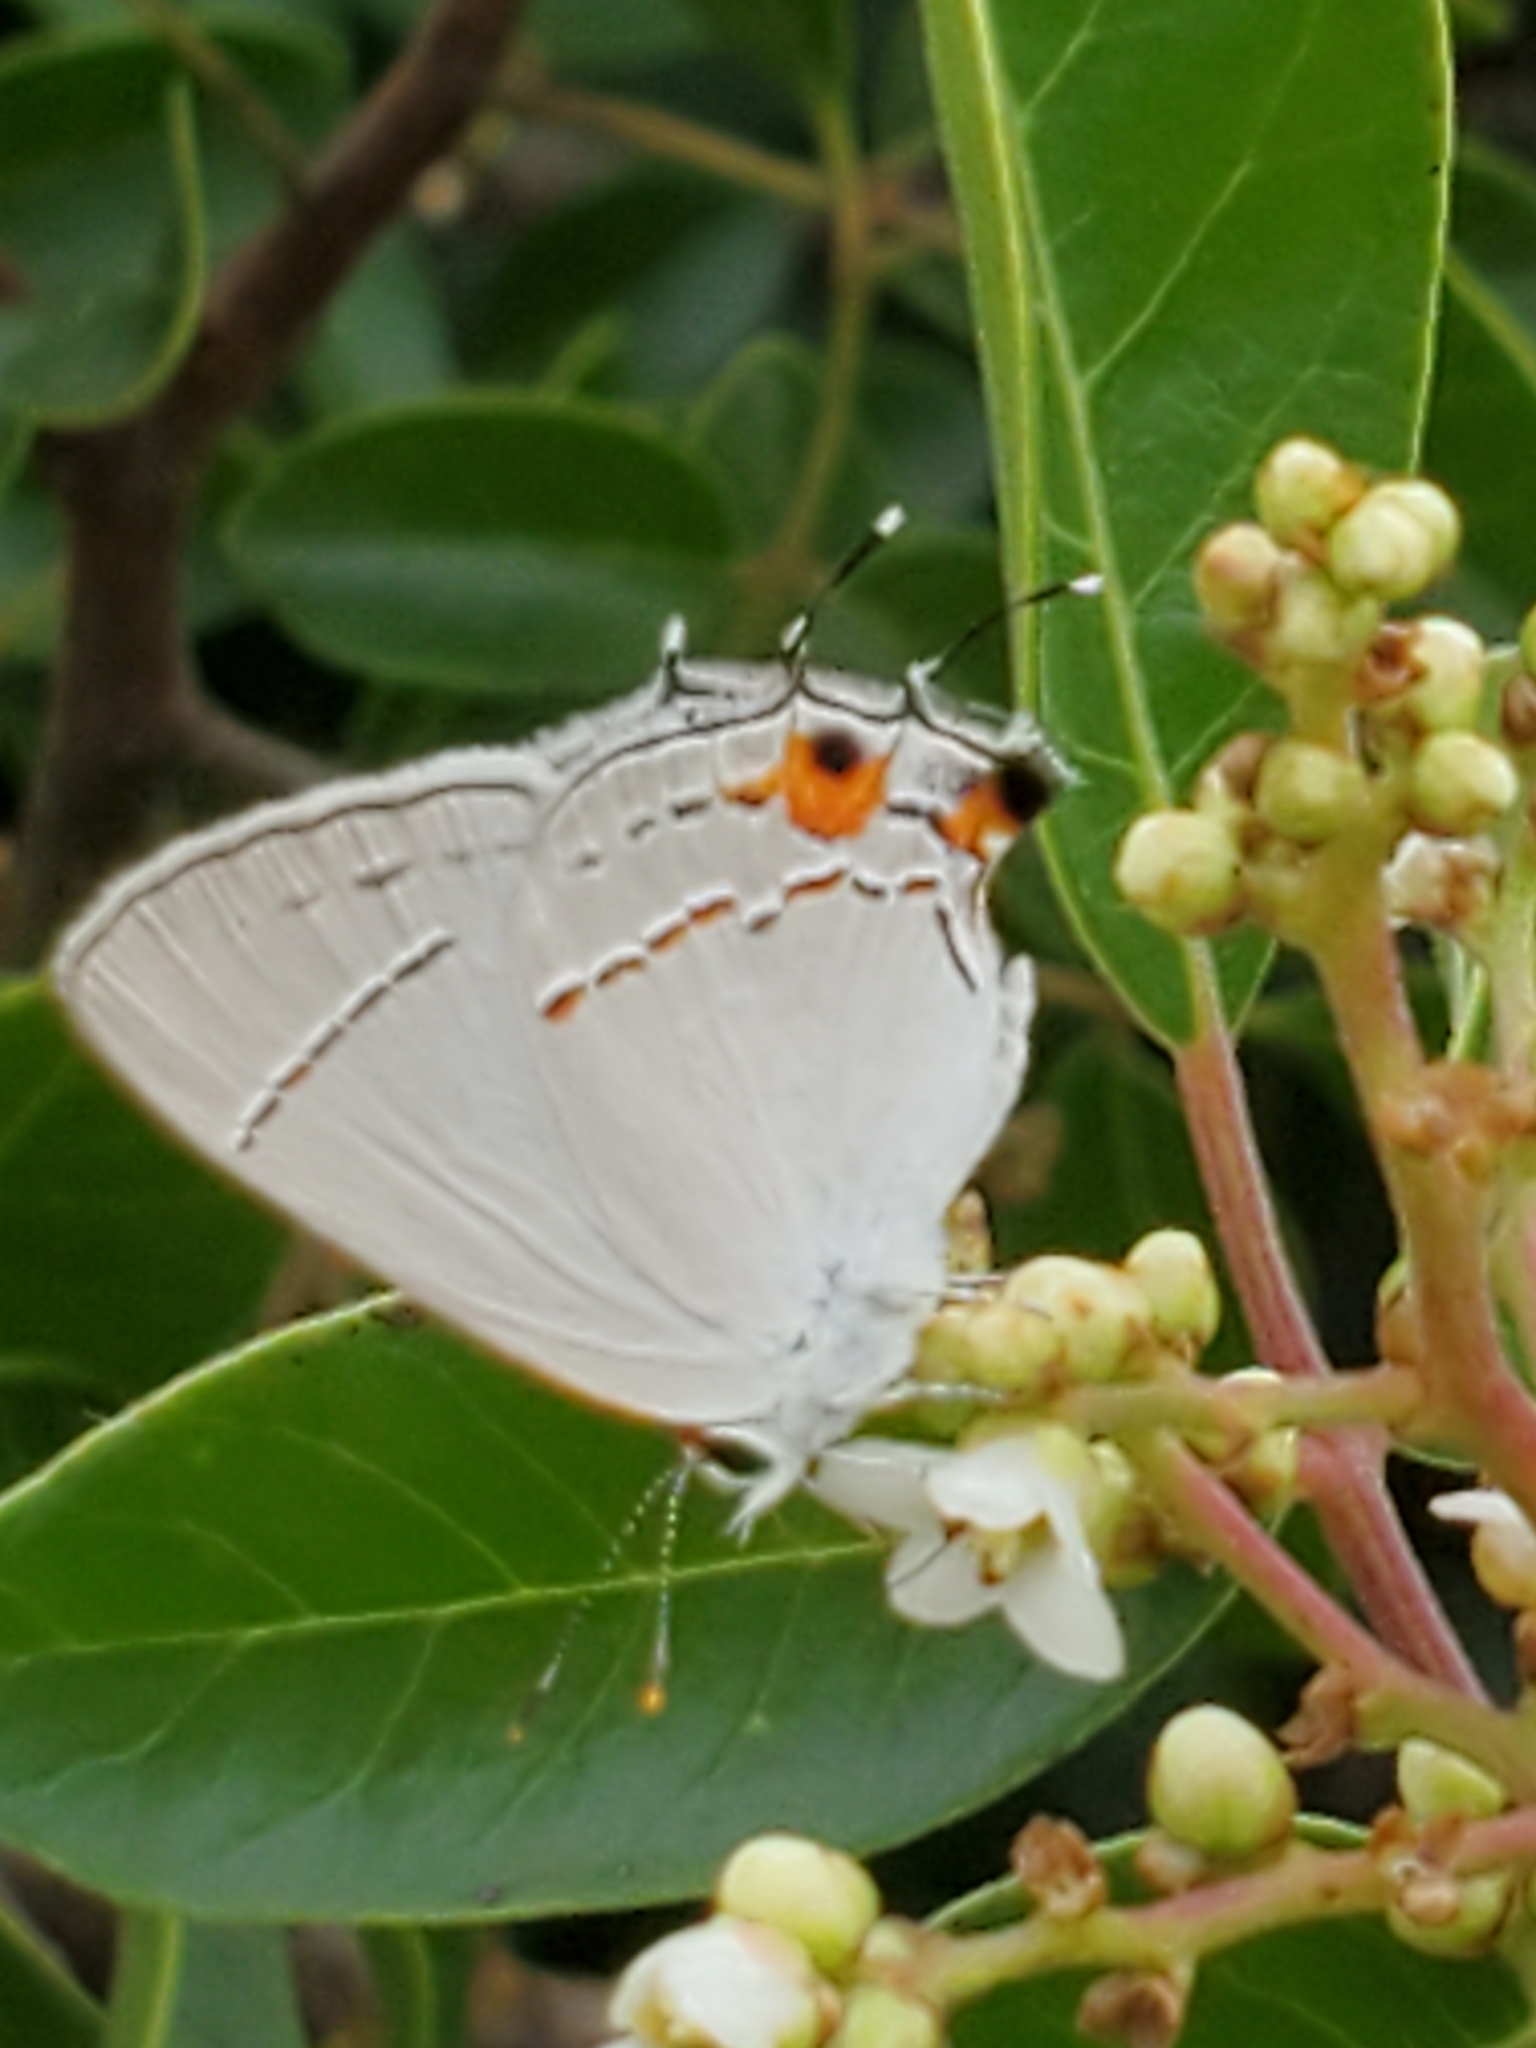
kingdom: Animalia
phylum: Arthropoda
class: Insecta
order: Lepidoptera
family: Lycaenidae
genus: Strymon
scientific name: Strymon melinus
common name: Gray hairstreak
